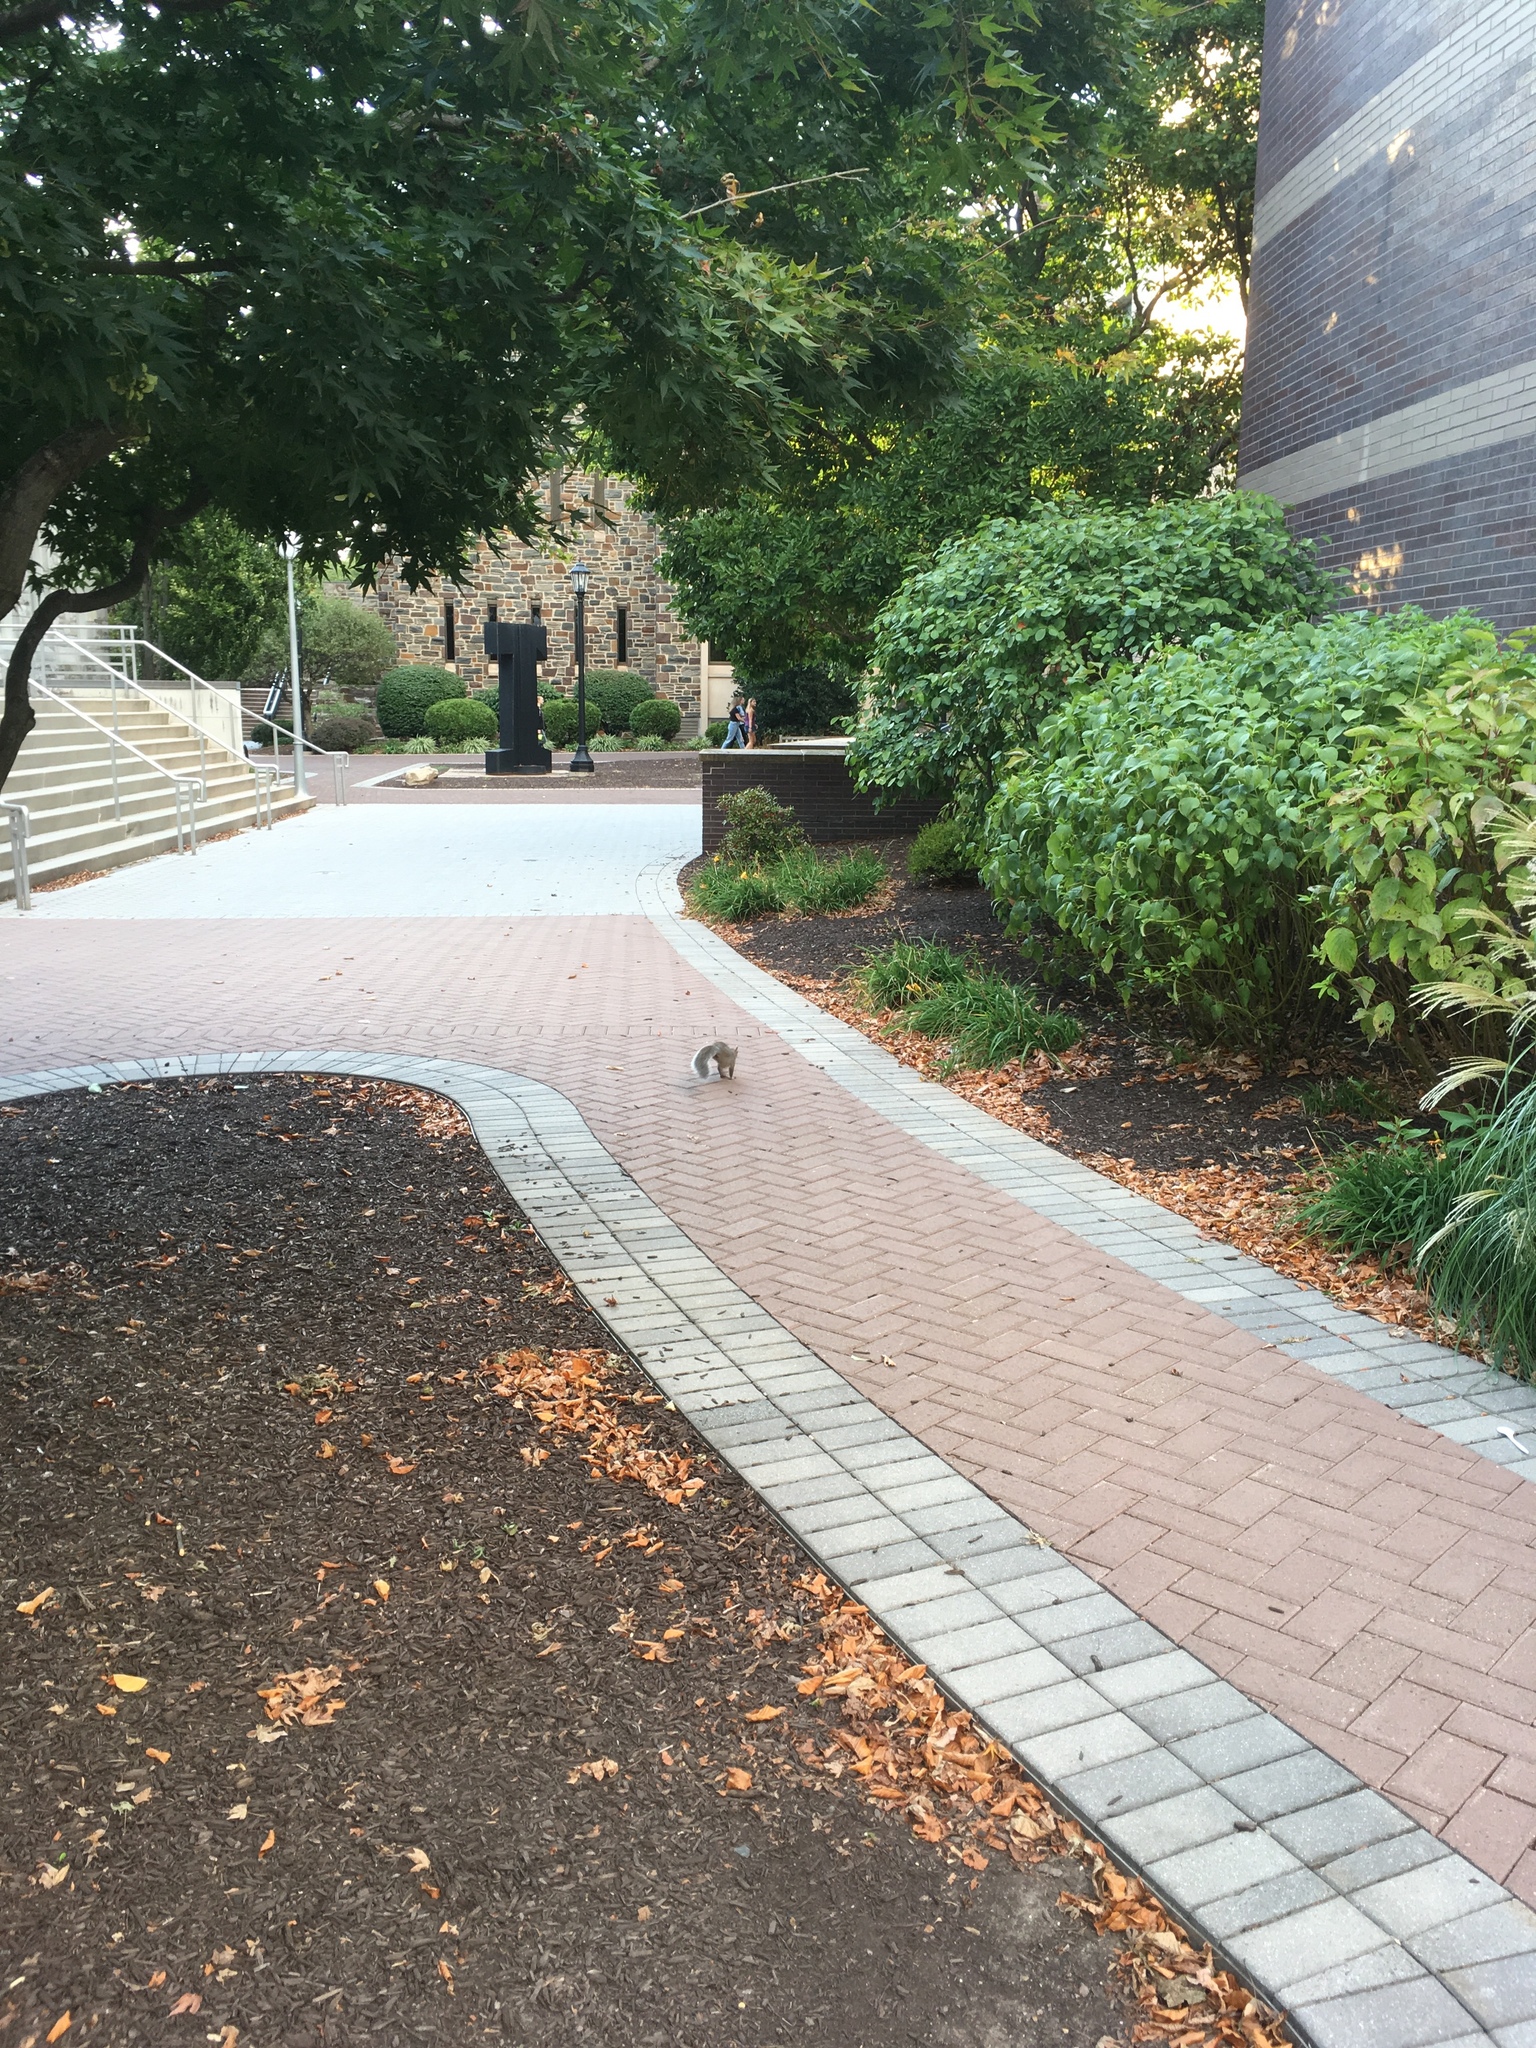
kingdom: Animalia
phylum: Chordata
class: Mammalia
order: Rodentia
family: Sciuridae
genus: Sciurus
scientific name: Sciurus carolinensis
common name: Eastern gray squirrel
